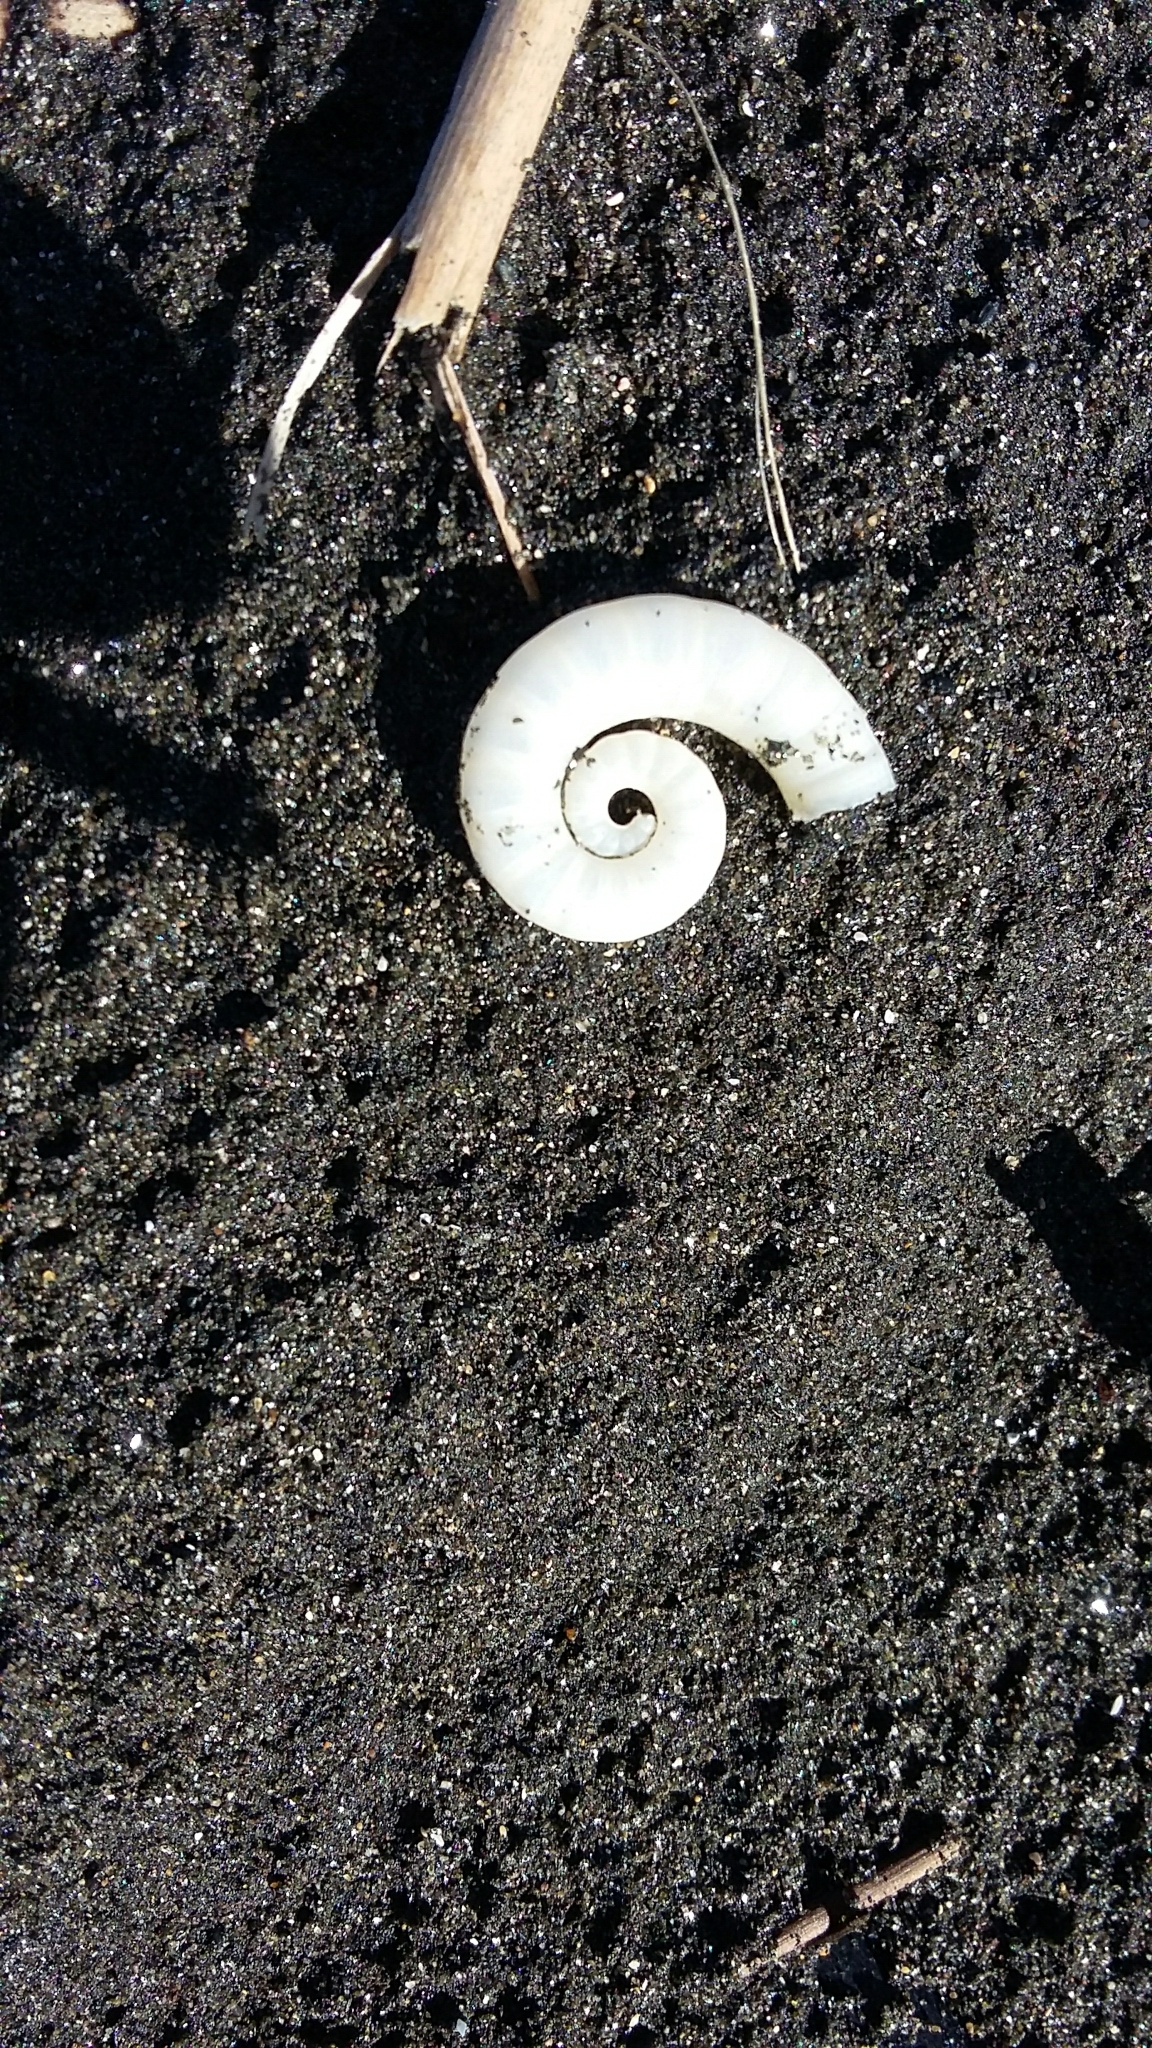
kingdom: Animalia
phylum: Mollusca
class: Cephalopoda
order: Spirulida
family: Spirulidae
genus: Spirula
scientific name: Spirula spirula
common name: Ram's horn squid
